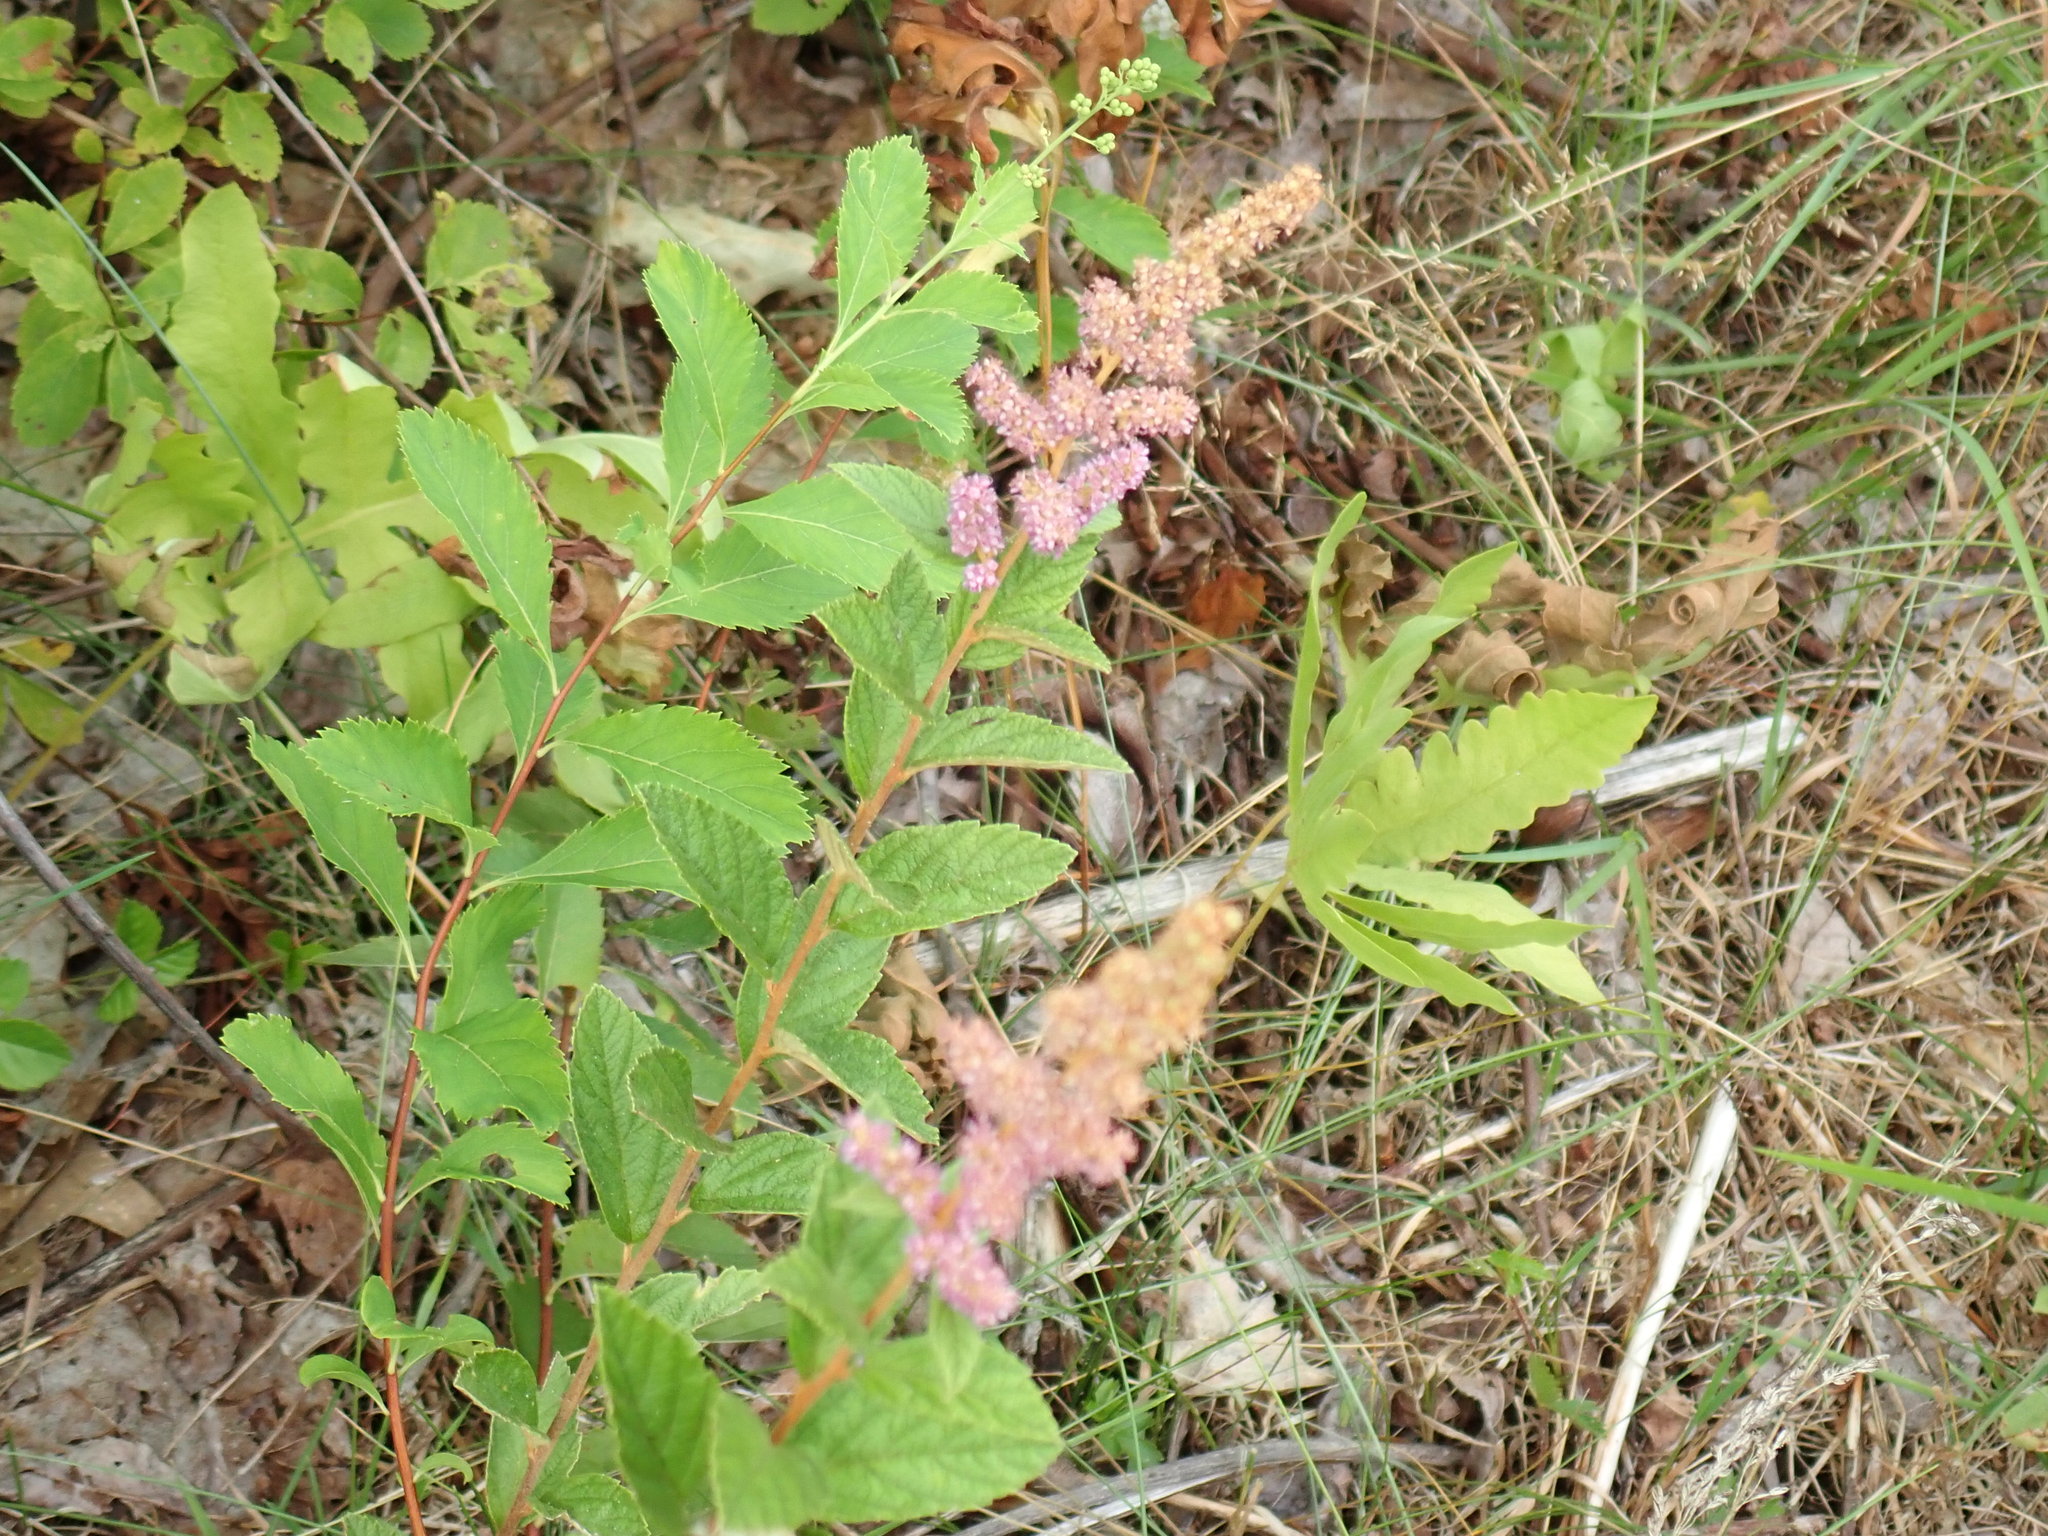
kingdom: Plantae
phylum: Tracheophyta
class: Magnoliopsida
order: Rosales
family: Rosaceae
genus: Spiraea
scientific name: Spiraea tomentosa
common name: Hardhack
